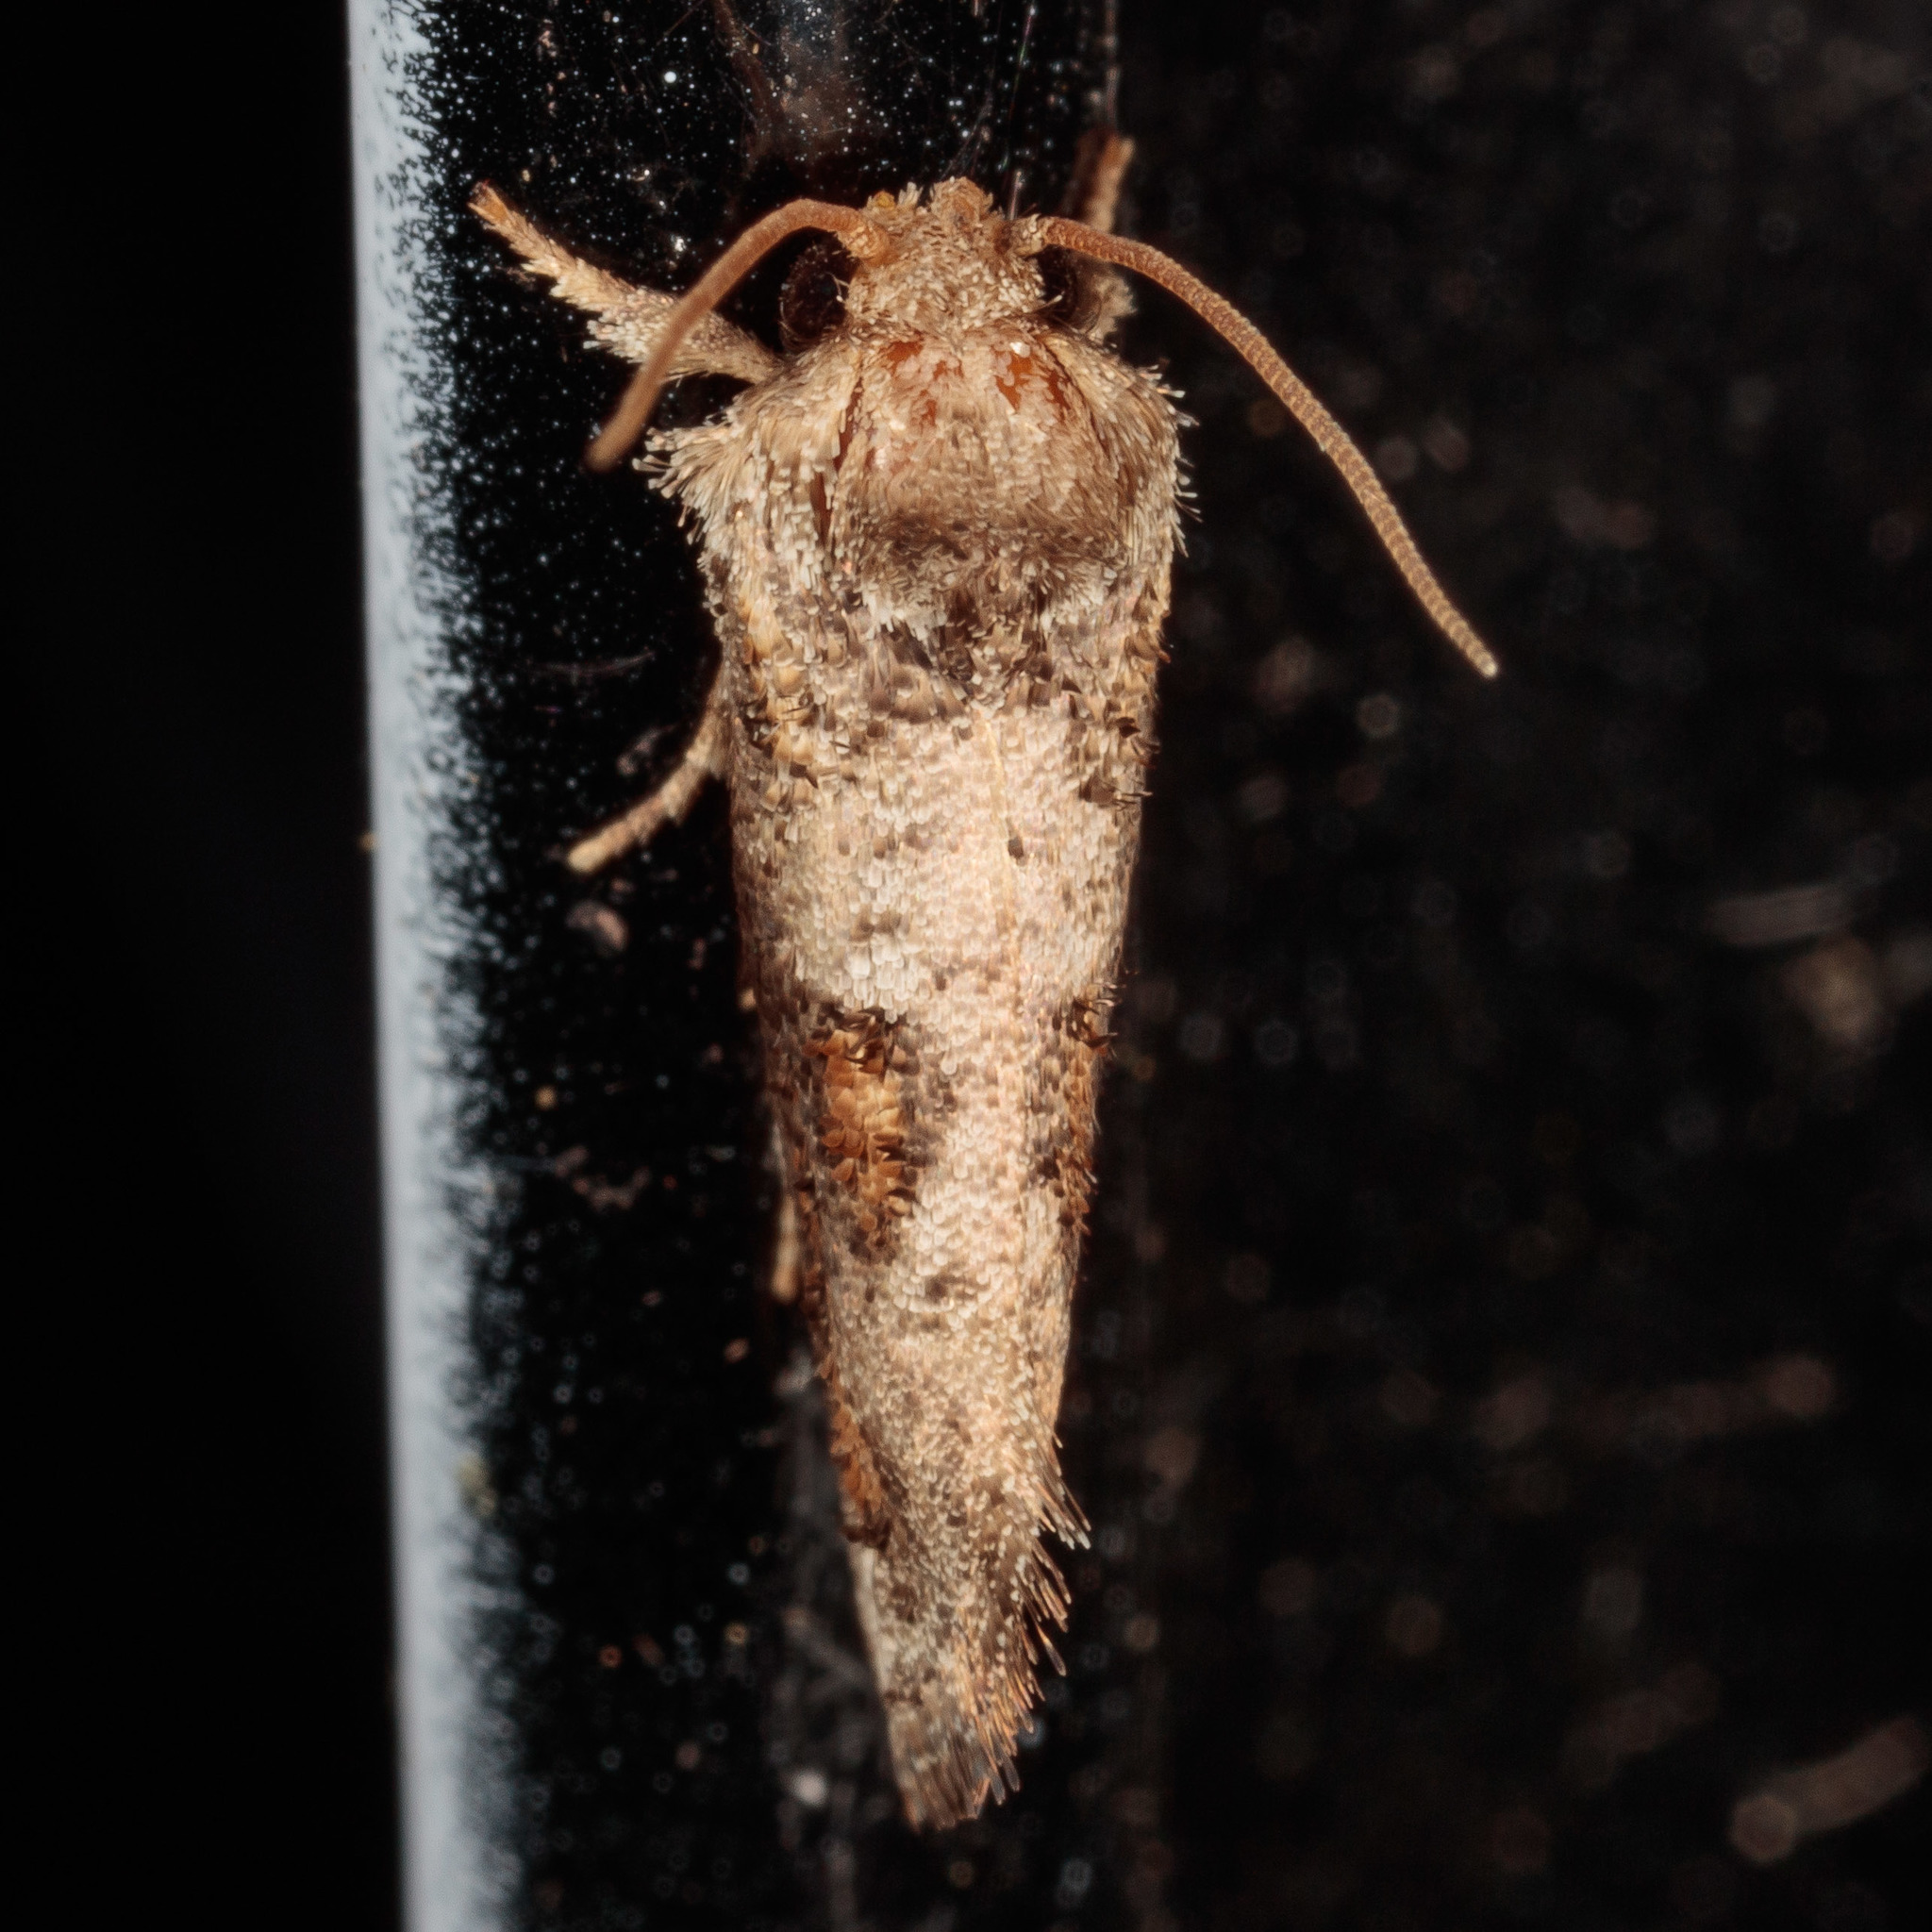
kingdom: Animalia
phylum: Arthropoda
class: Insecta
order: Lepidoptera
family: Tineidae
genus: Acrolophus
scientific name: Acrolophus piger
